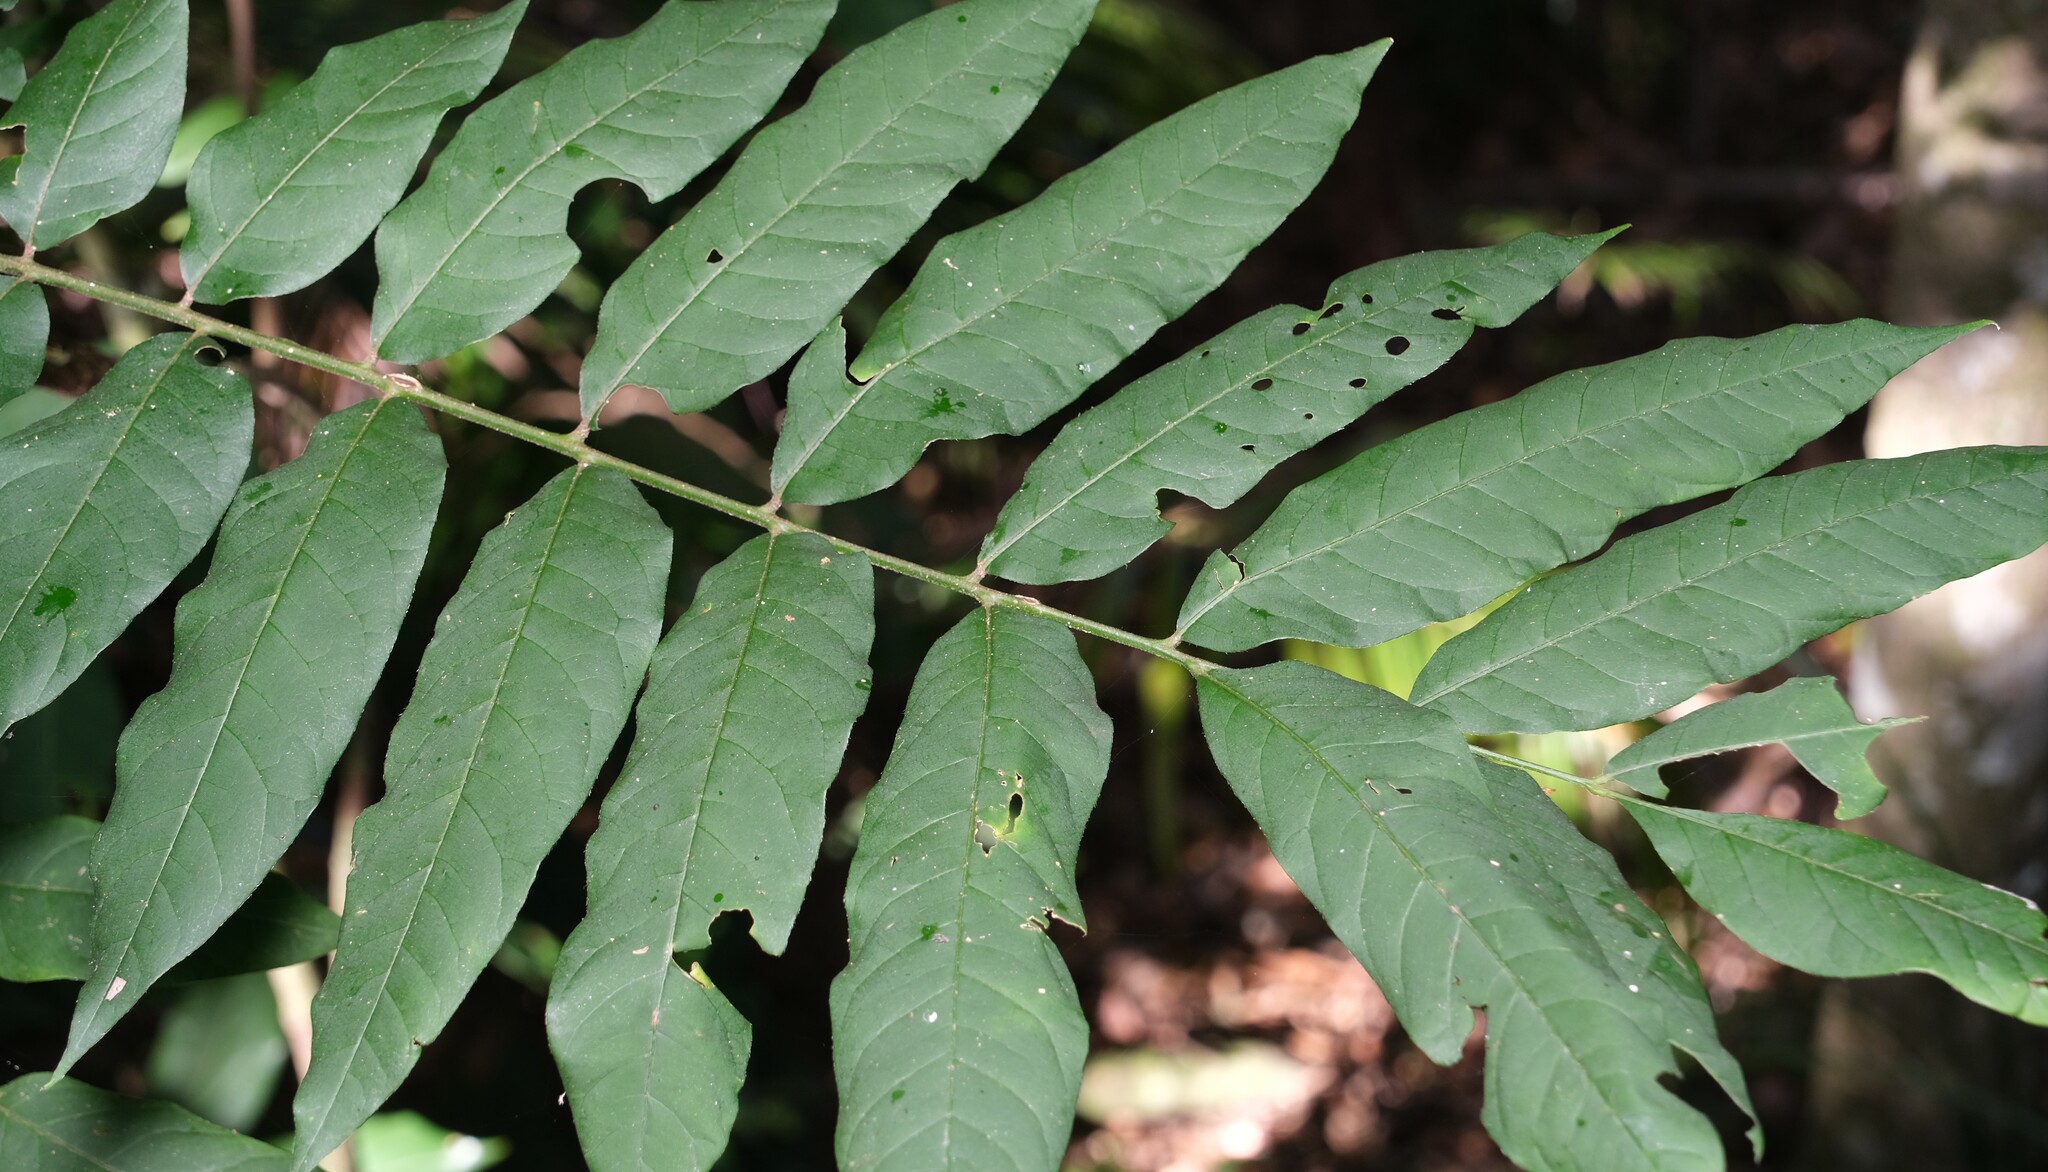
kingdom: Plantae
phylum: Tracheophyta
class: Magnoliopsida
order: Sapindales
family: Meliaceae
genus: Didymocheton
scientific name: Didymocheton rufus
